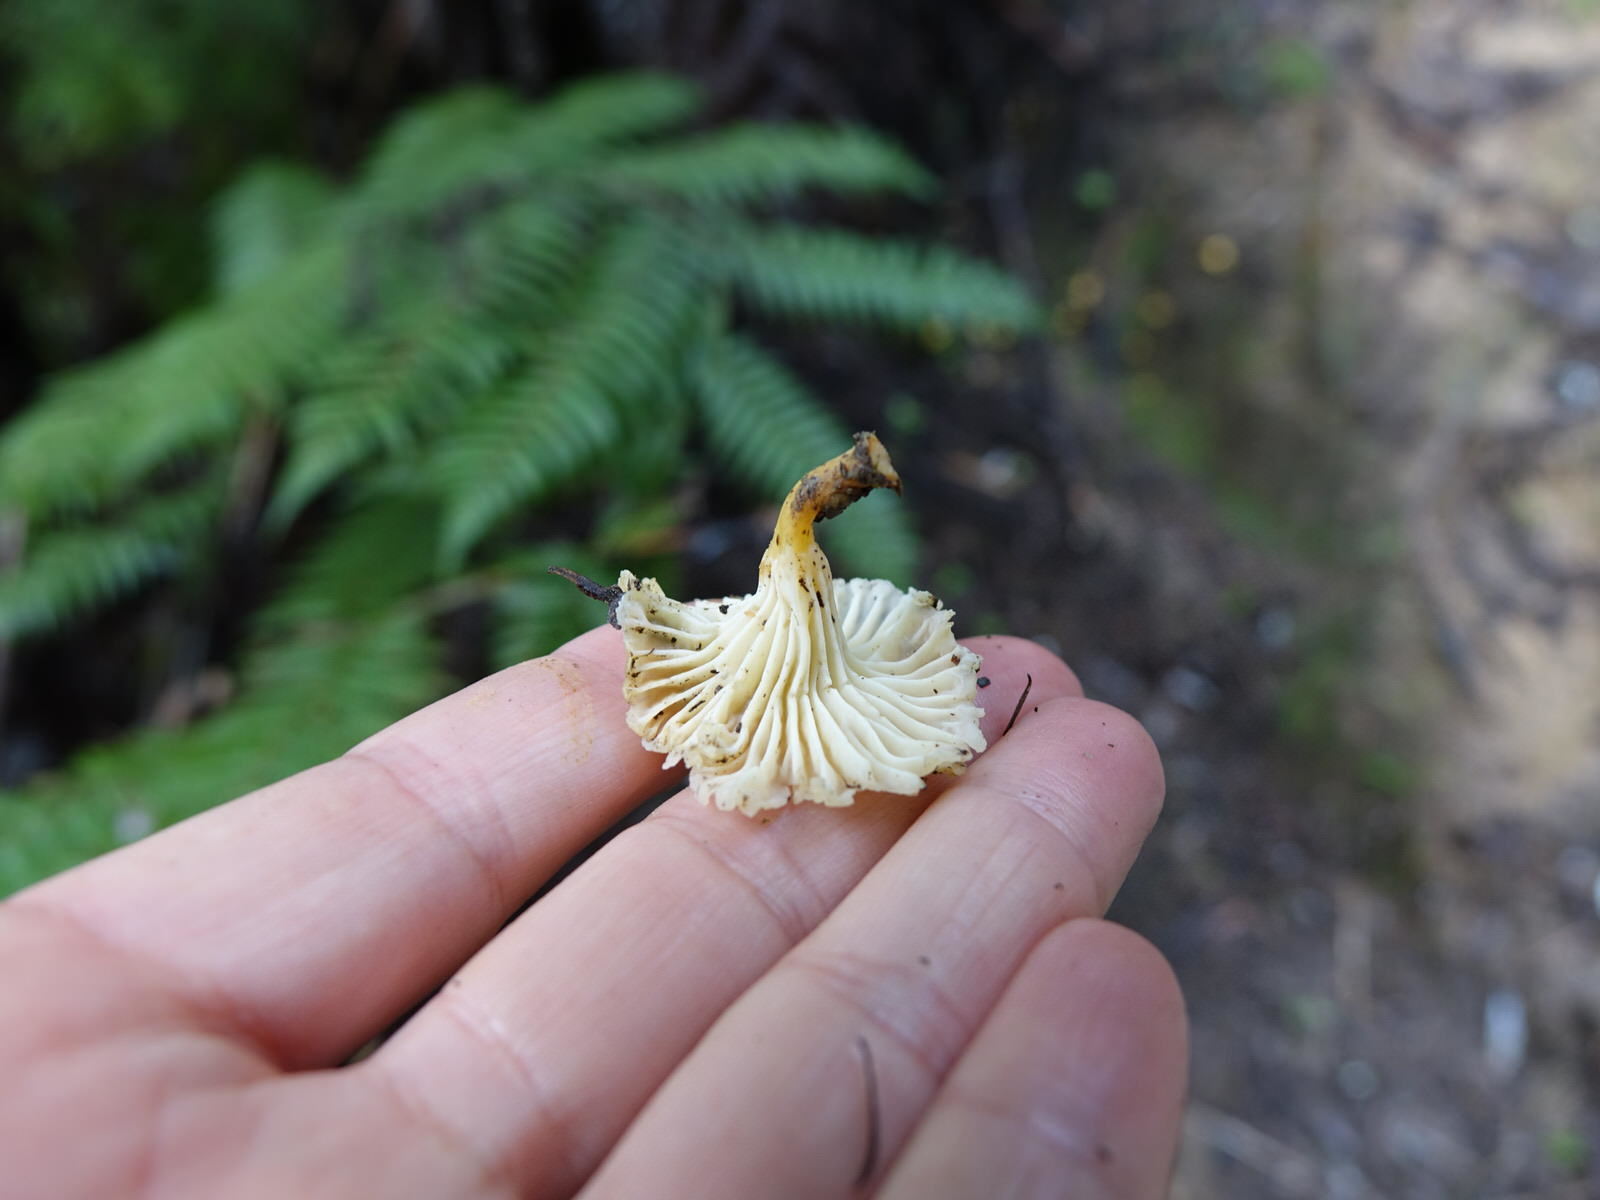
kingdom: Fungi
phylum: Basidiomycota
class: Agaricomycetes
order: Cantharellales
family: Hydnaceae
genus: Cantharellus
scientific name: Cantharellus wellingtonensis
